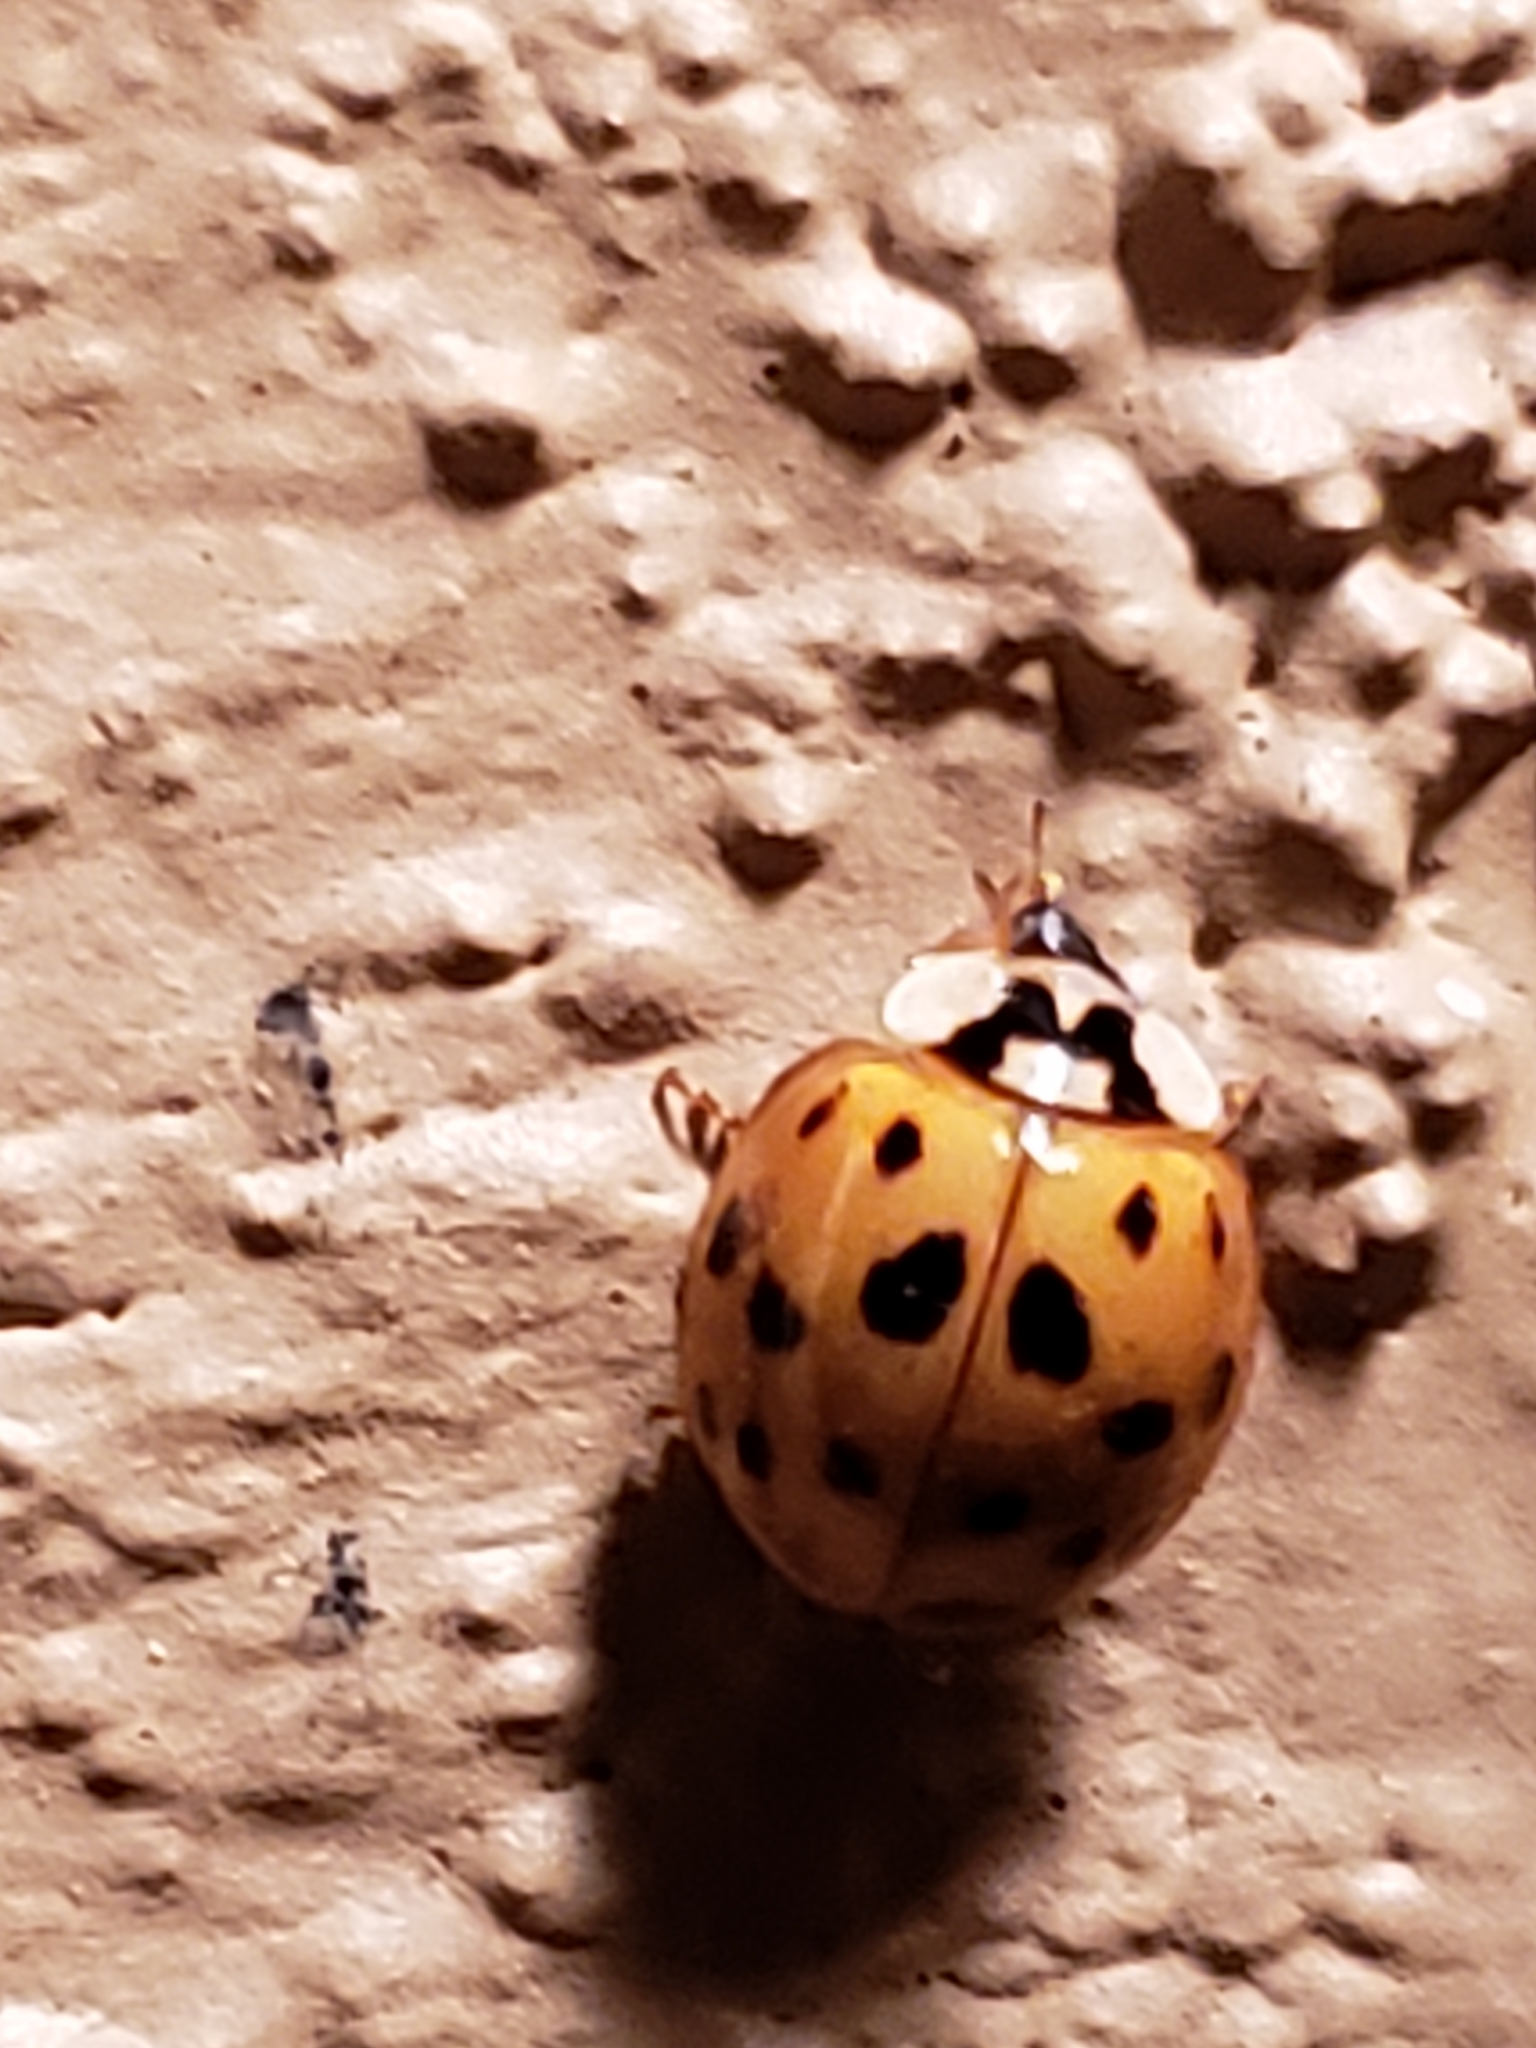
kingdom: Animalia
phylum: Arthropoda
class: Insecta
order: Coleoptera
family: Coccinellidae
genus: Harmonia
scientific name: Harmonia axyridis
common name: Harlequin ladybird
